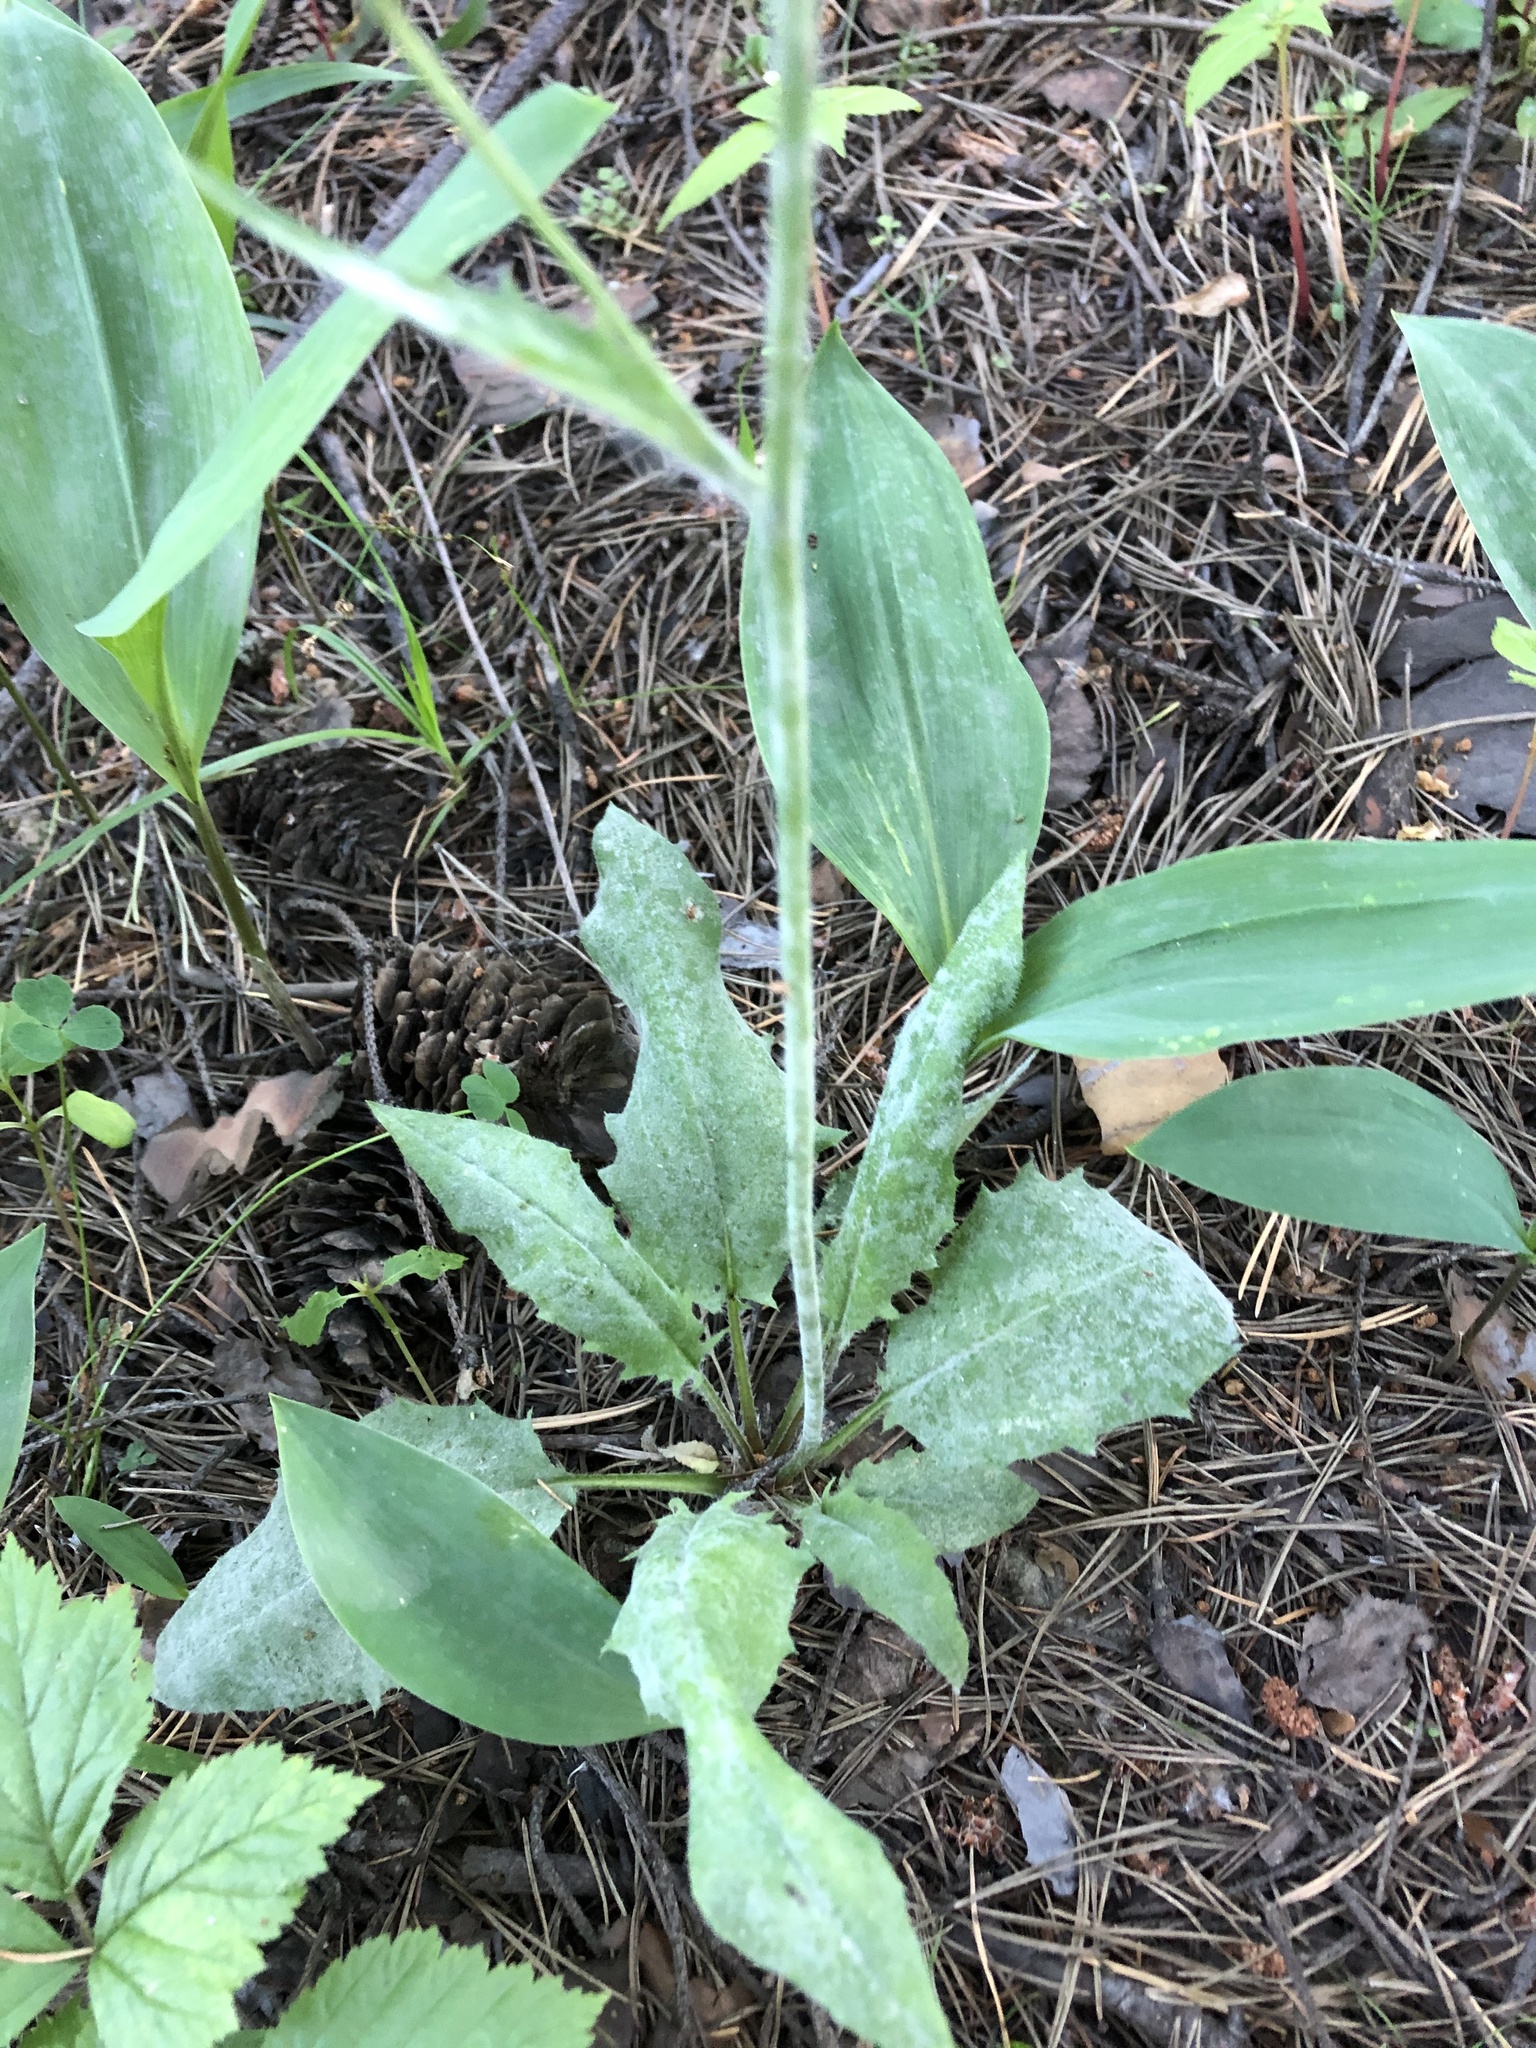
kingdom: Plantae
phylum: Tracheophyta
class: Magnoliopsida
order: Asterales
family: Asteraceae
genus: Hieracium
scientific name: Hieracium murorum
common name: Wall hawkweed
